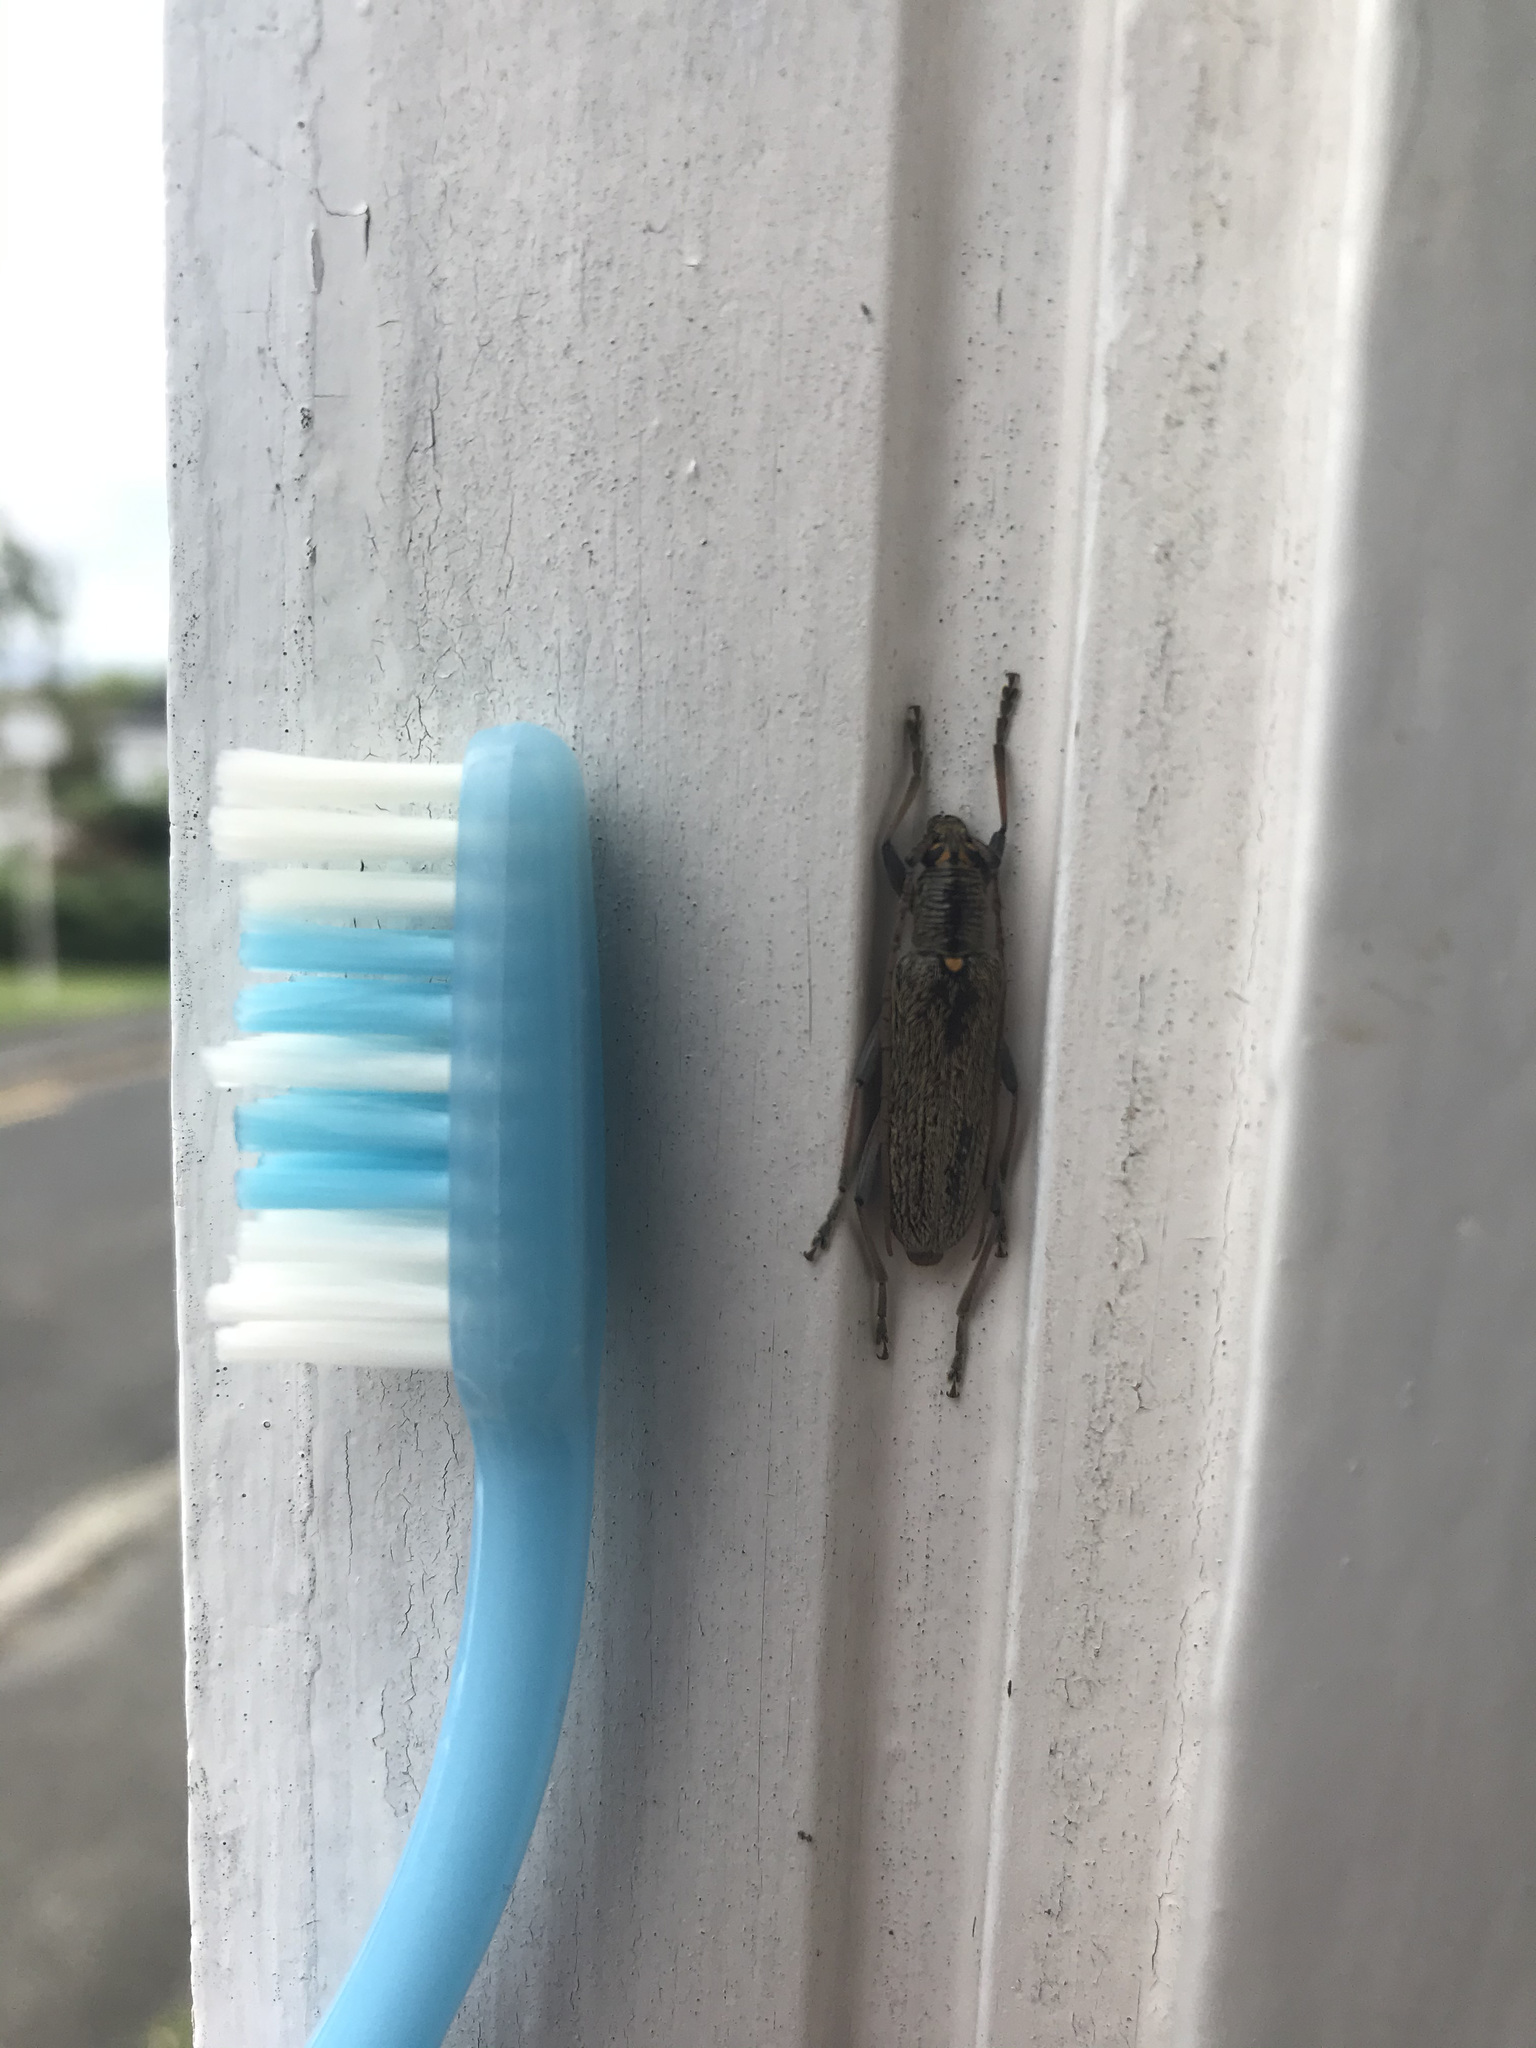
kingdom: Animalia
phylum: Arthropoda
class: Insecta
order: Coleoptera
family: Cerambycidae
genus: Oemona
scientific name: Oemona hirta
